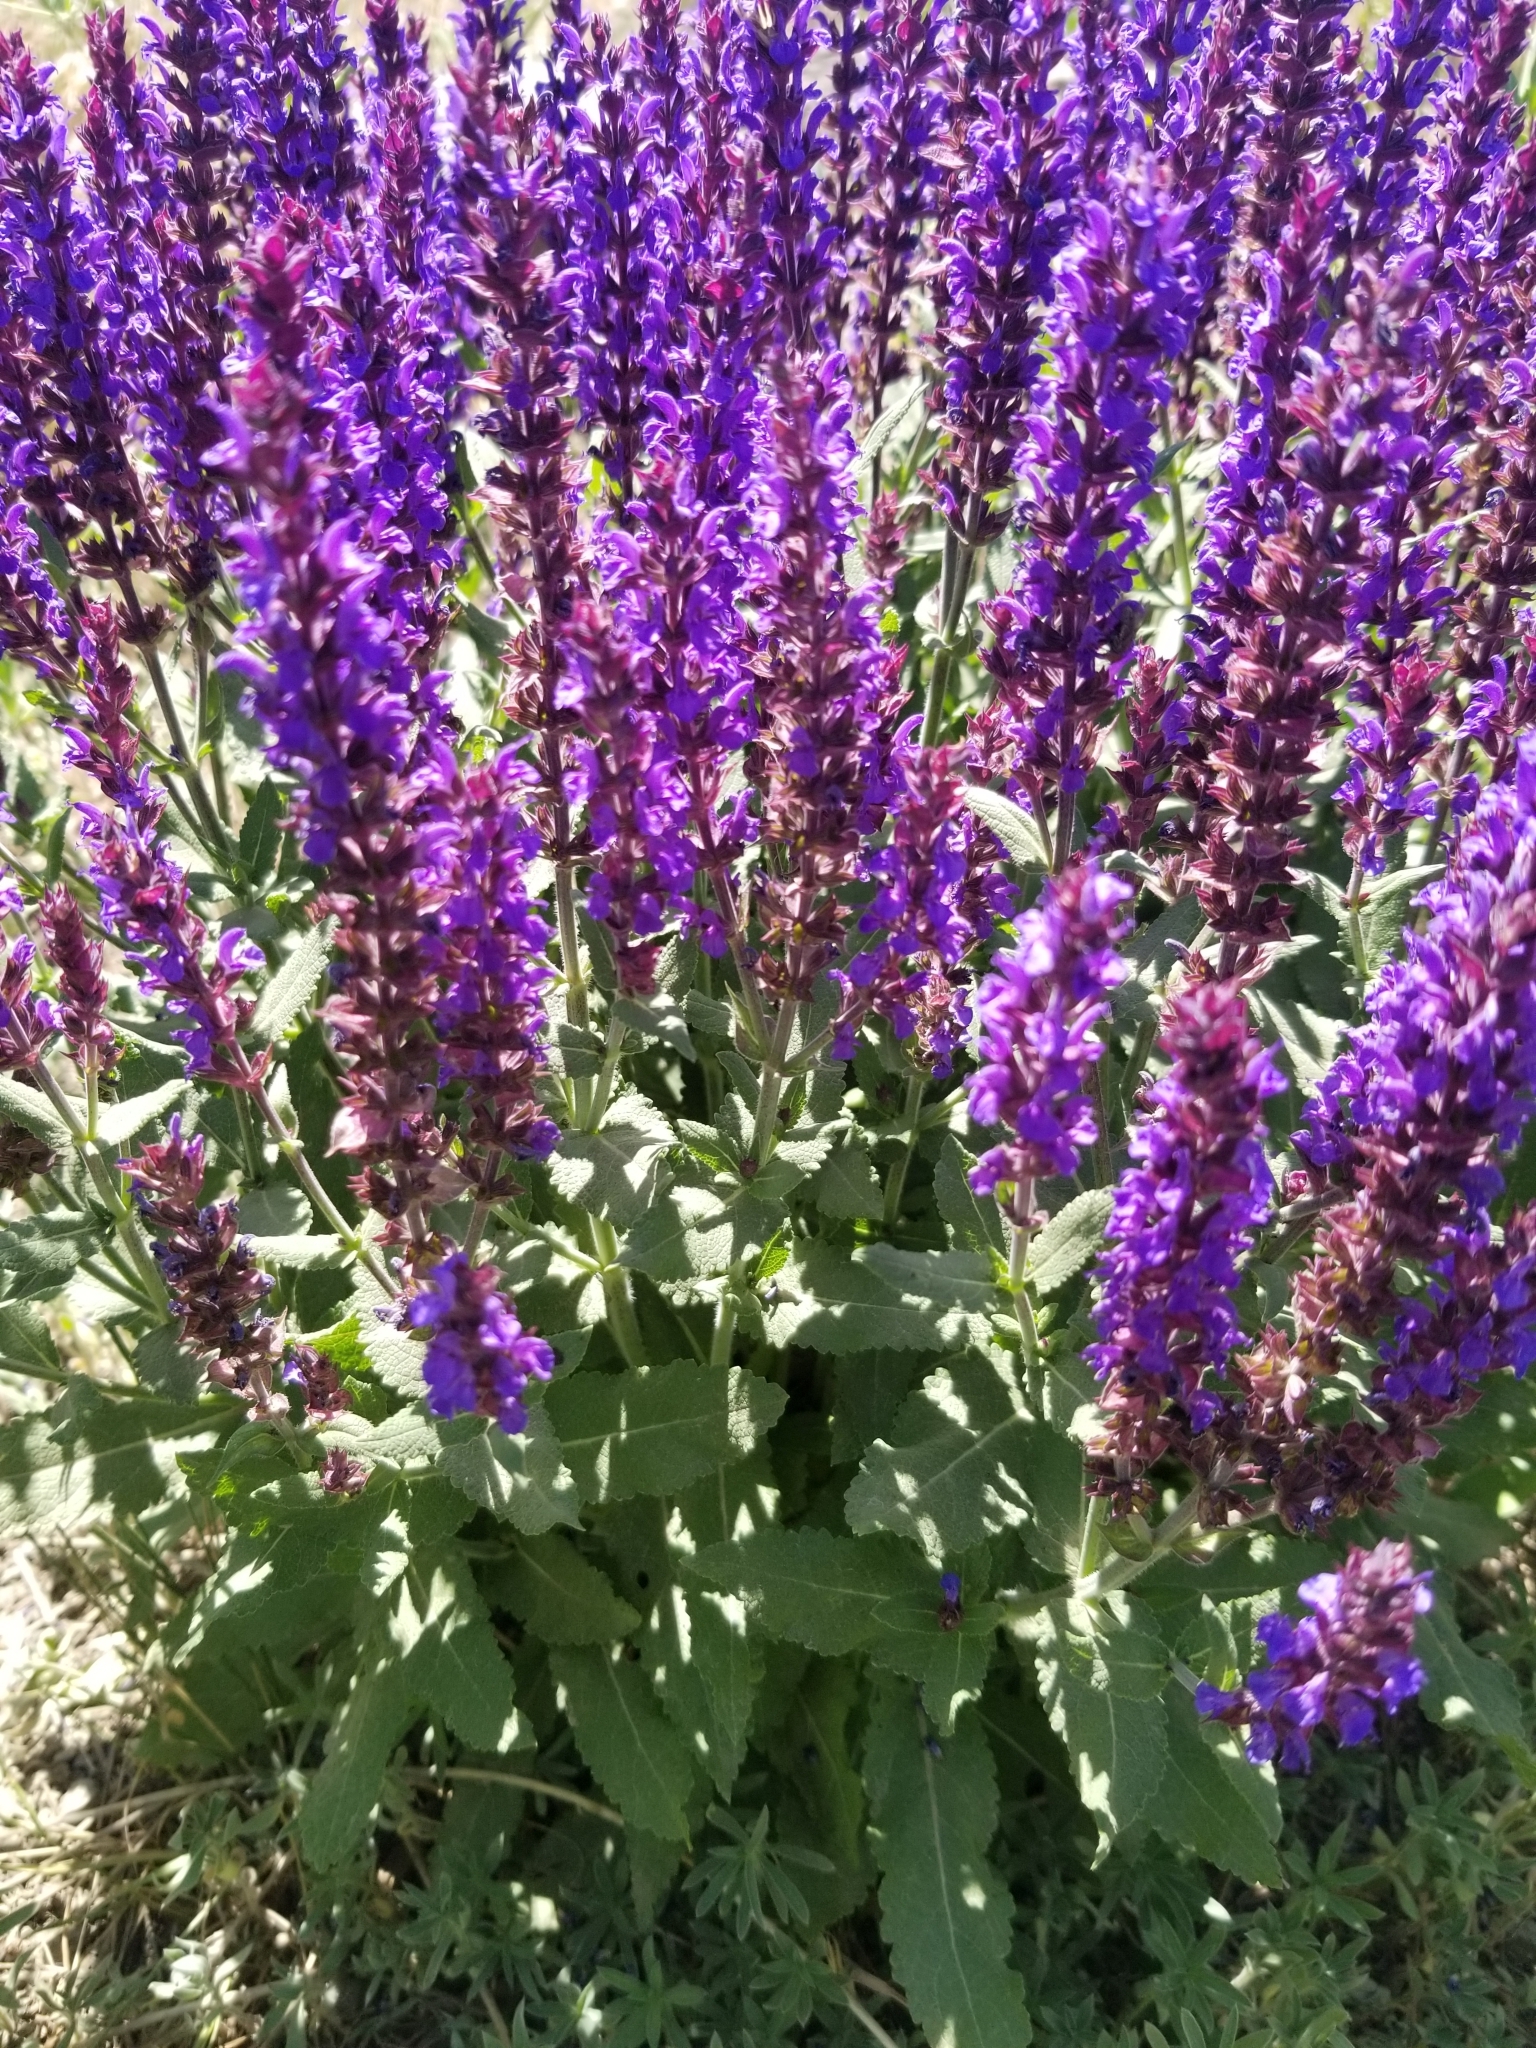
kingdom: Plantae
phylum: Tracheophyta
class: Magnoliopsida
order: Lamiales
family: Lamiaceae
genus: Salvia
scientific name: Salvia nemorosa
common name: Balkan clary
